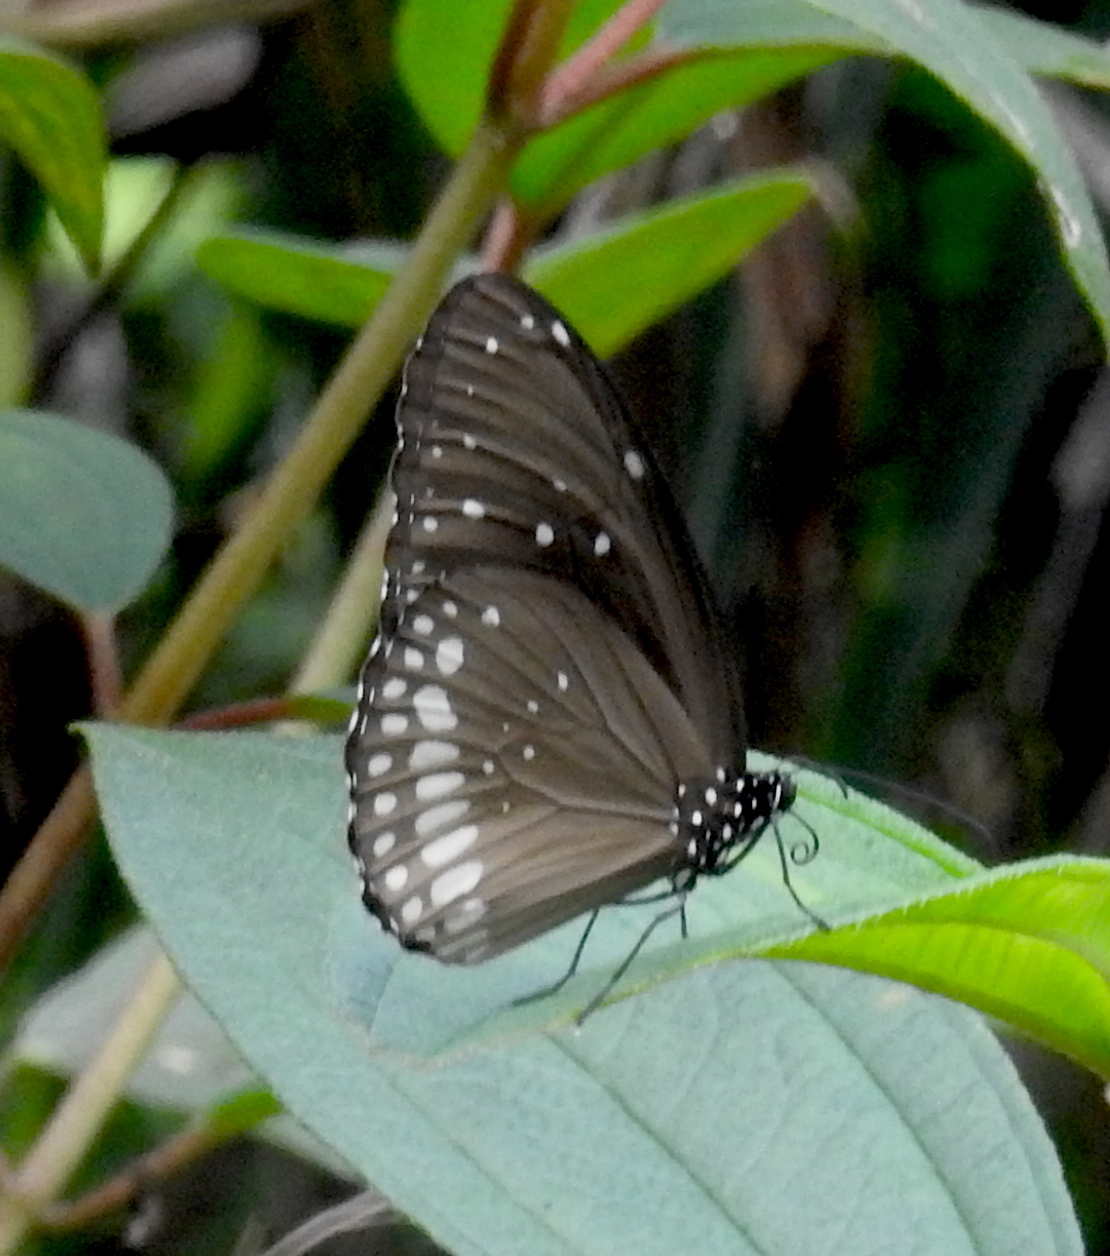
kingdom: Animalia
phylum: Arthropoda
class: Insecta
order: Lepidoptera
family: Nymphalidae
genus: Euploea
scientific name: Euploea core
